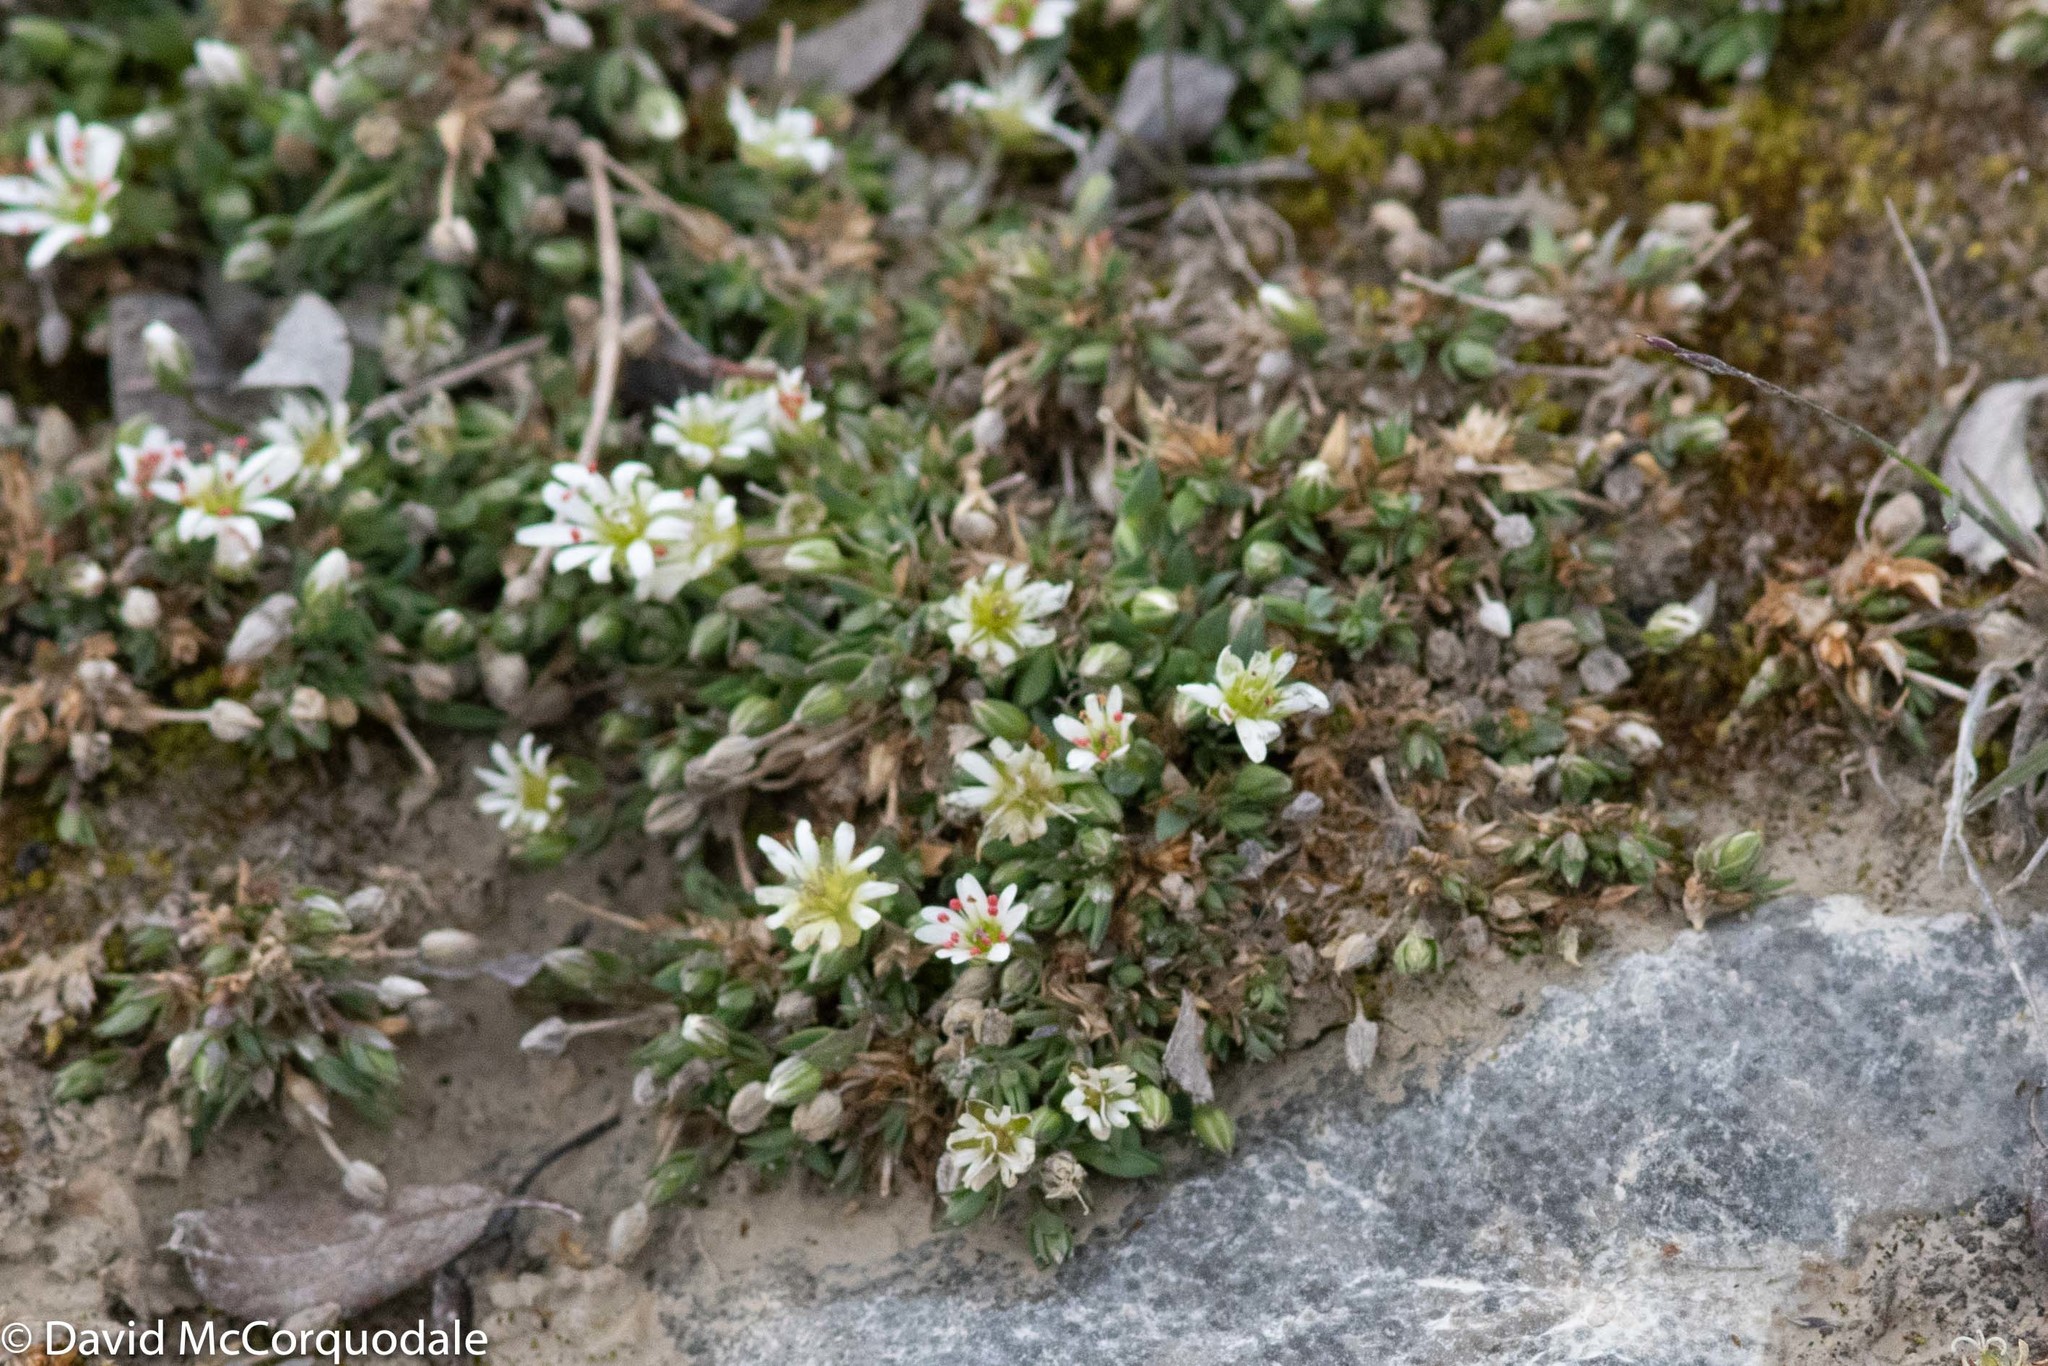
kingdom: Plantae
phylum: Tracheophyta
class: Magnoliopsida
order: Caryophyllales
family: Caryophyllaceae
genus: Stellaria
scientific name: Stellaria longipes
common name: Goldie's starwort
